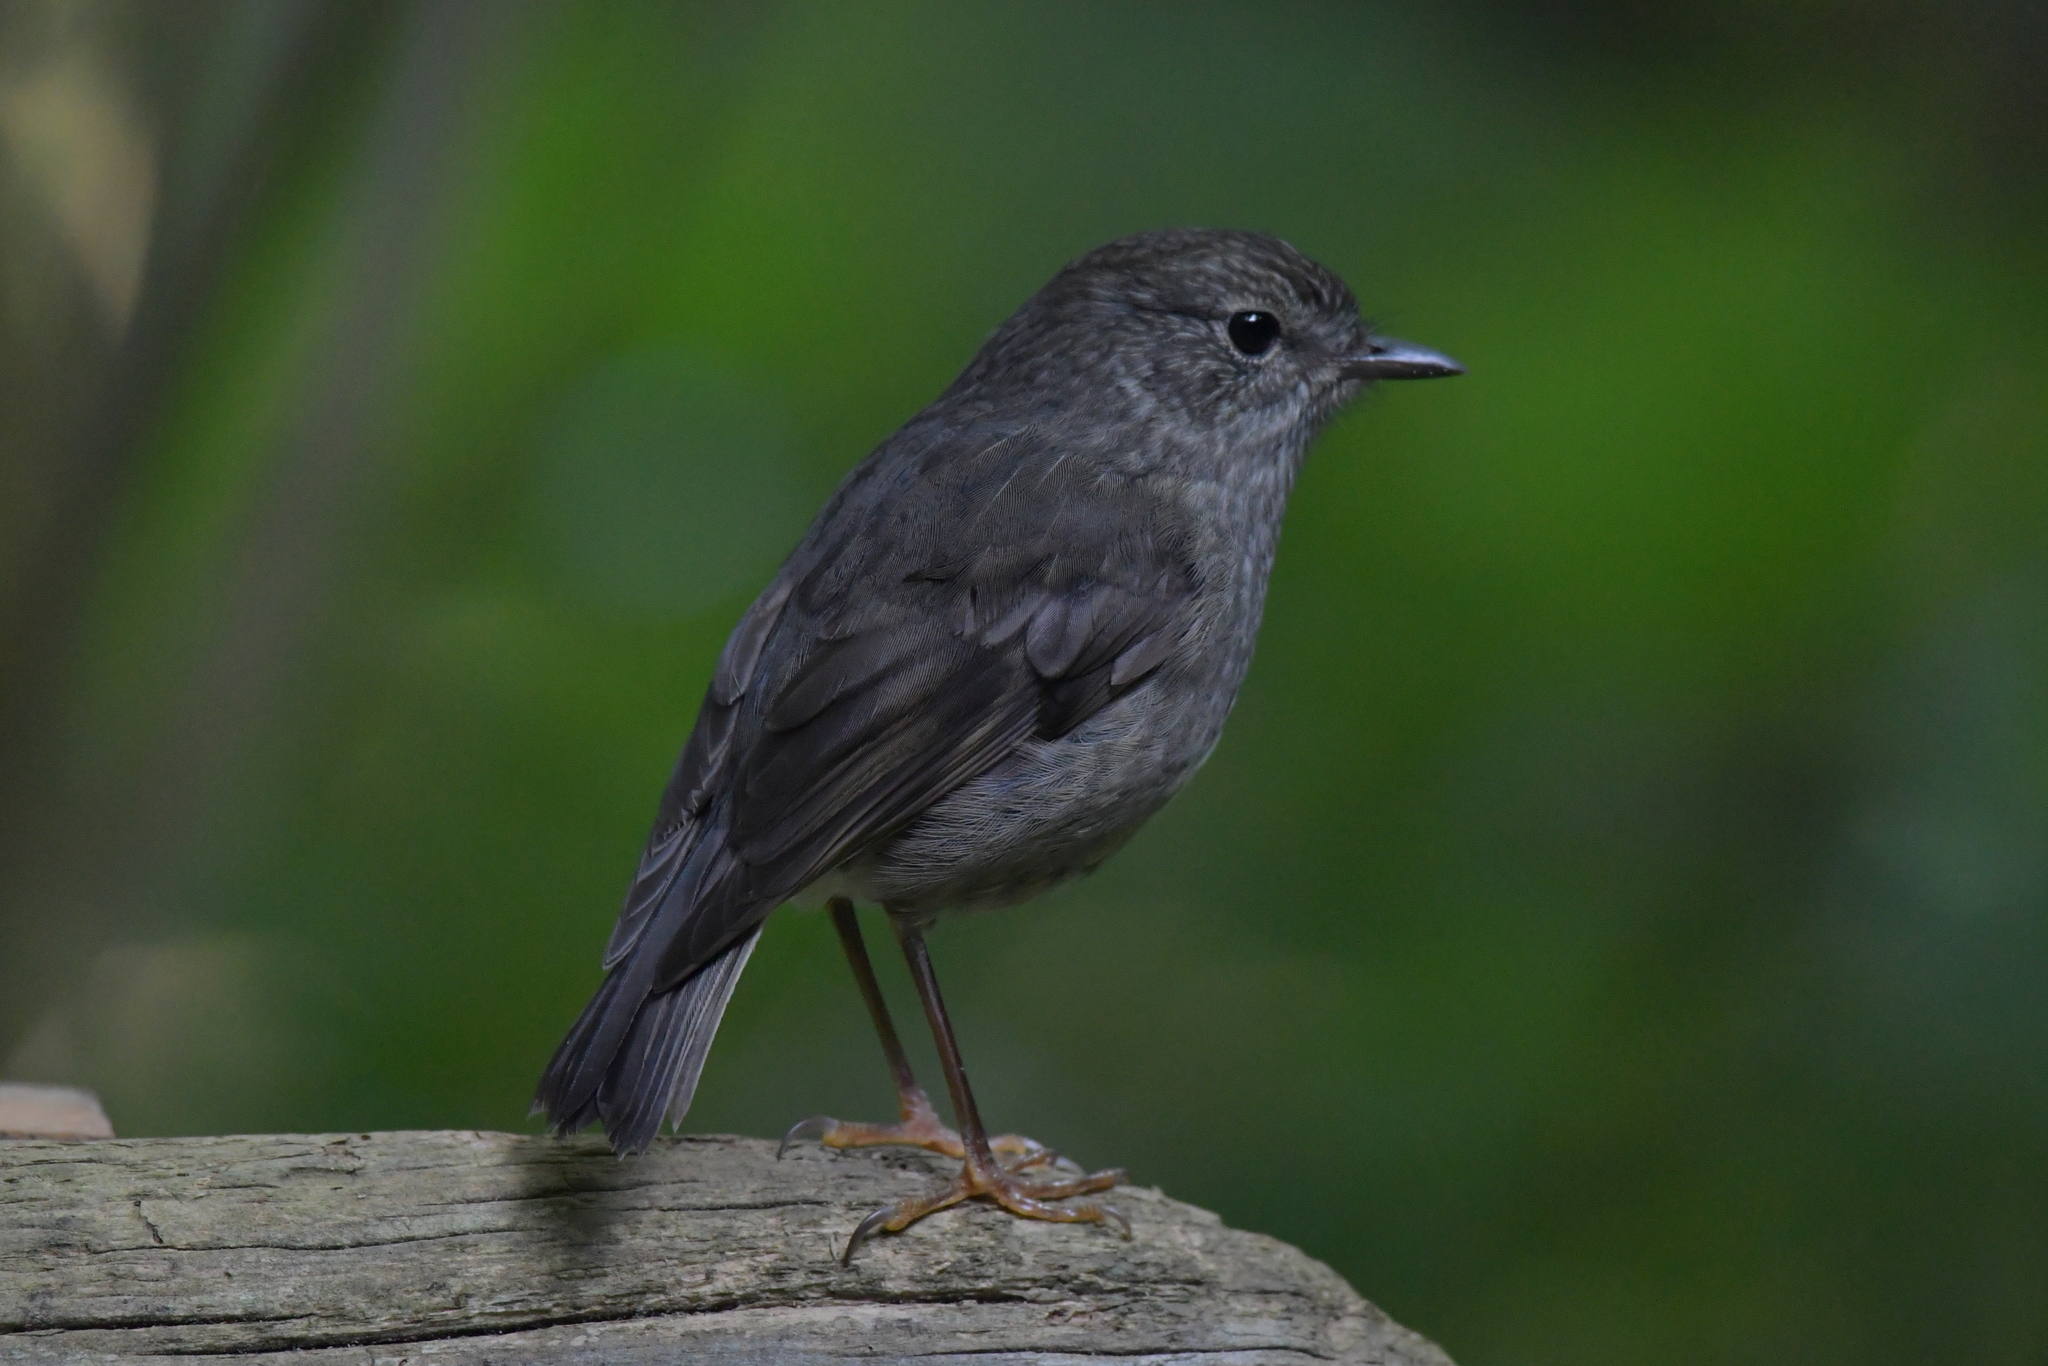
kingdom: Animalia
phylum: Chordata
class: Aves
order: Passeriformes
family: Petroicidae
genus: Petroica
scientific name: Petroica australis
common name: New zealand robin
